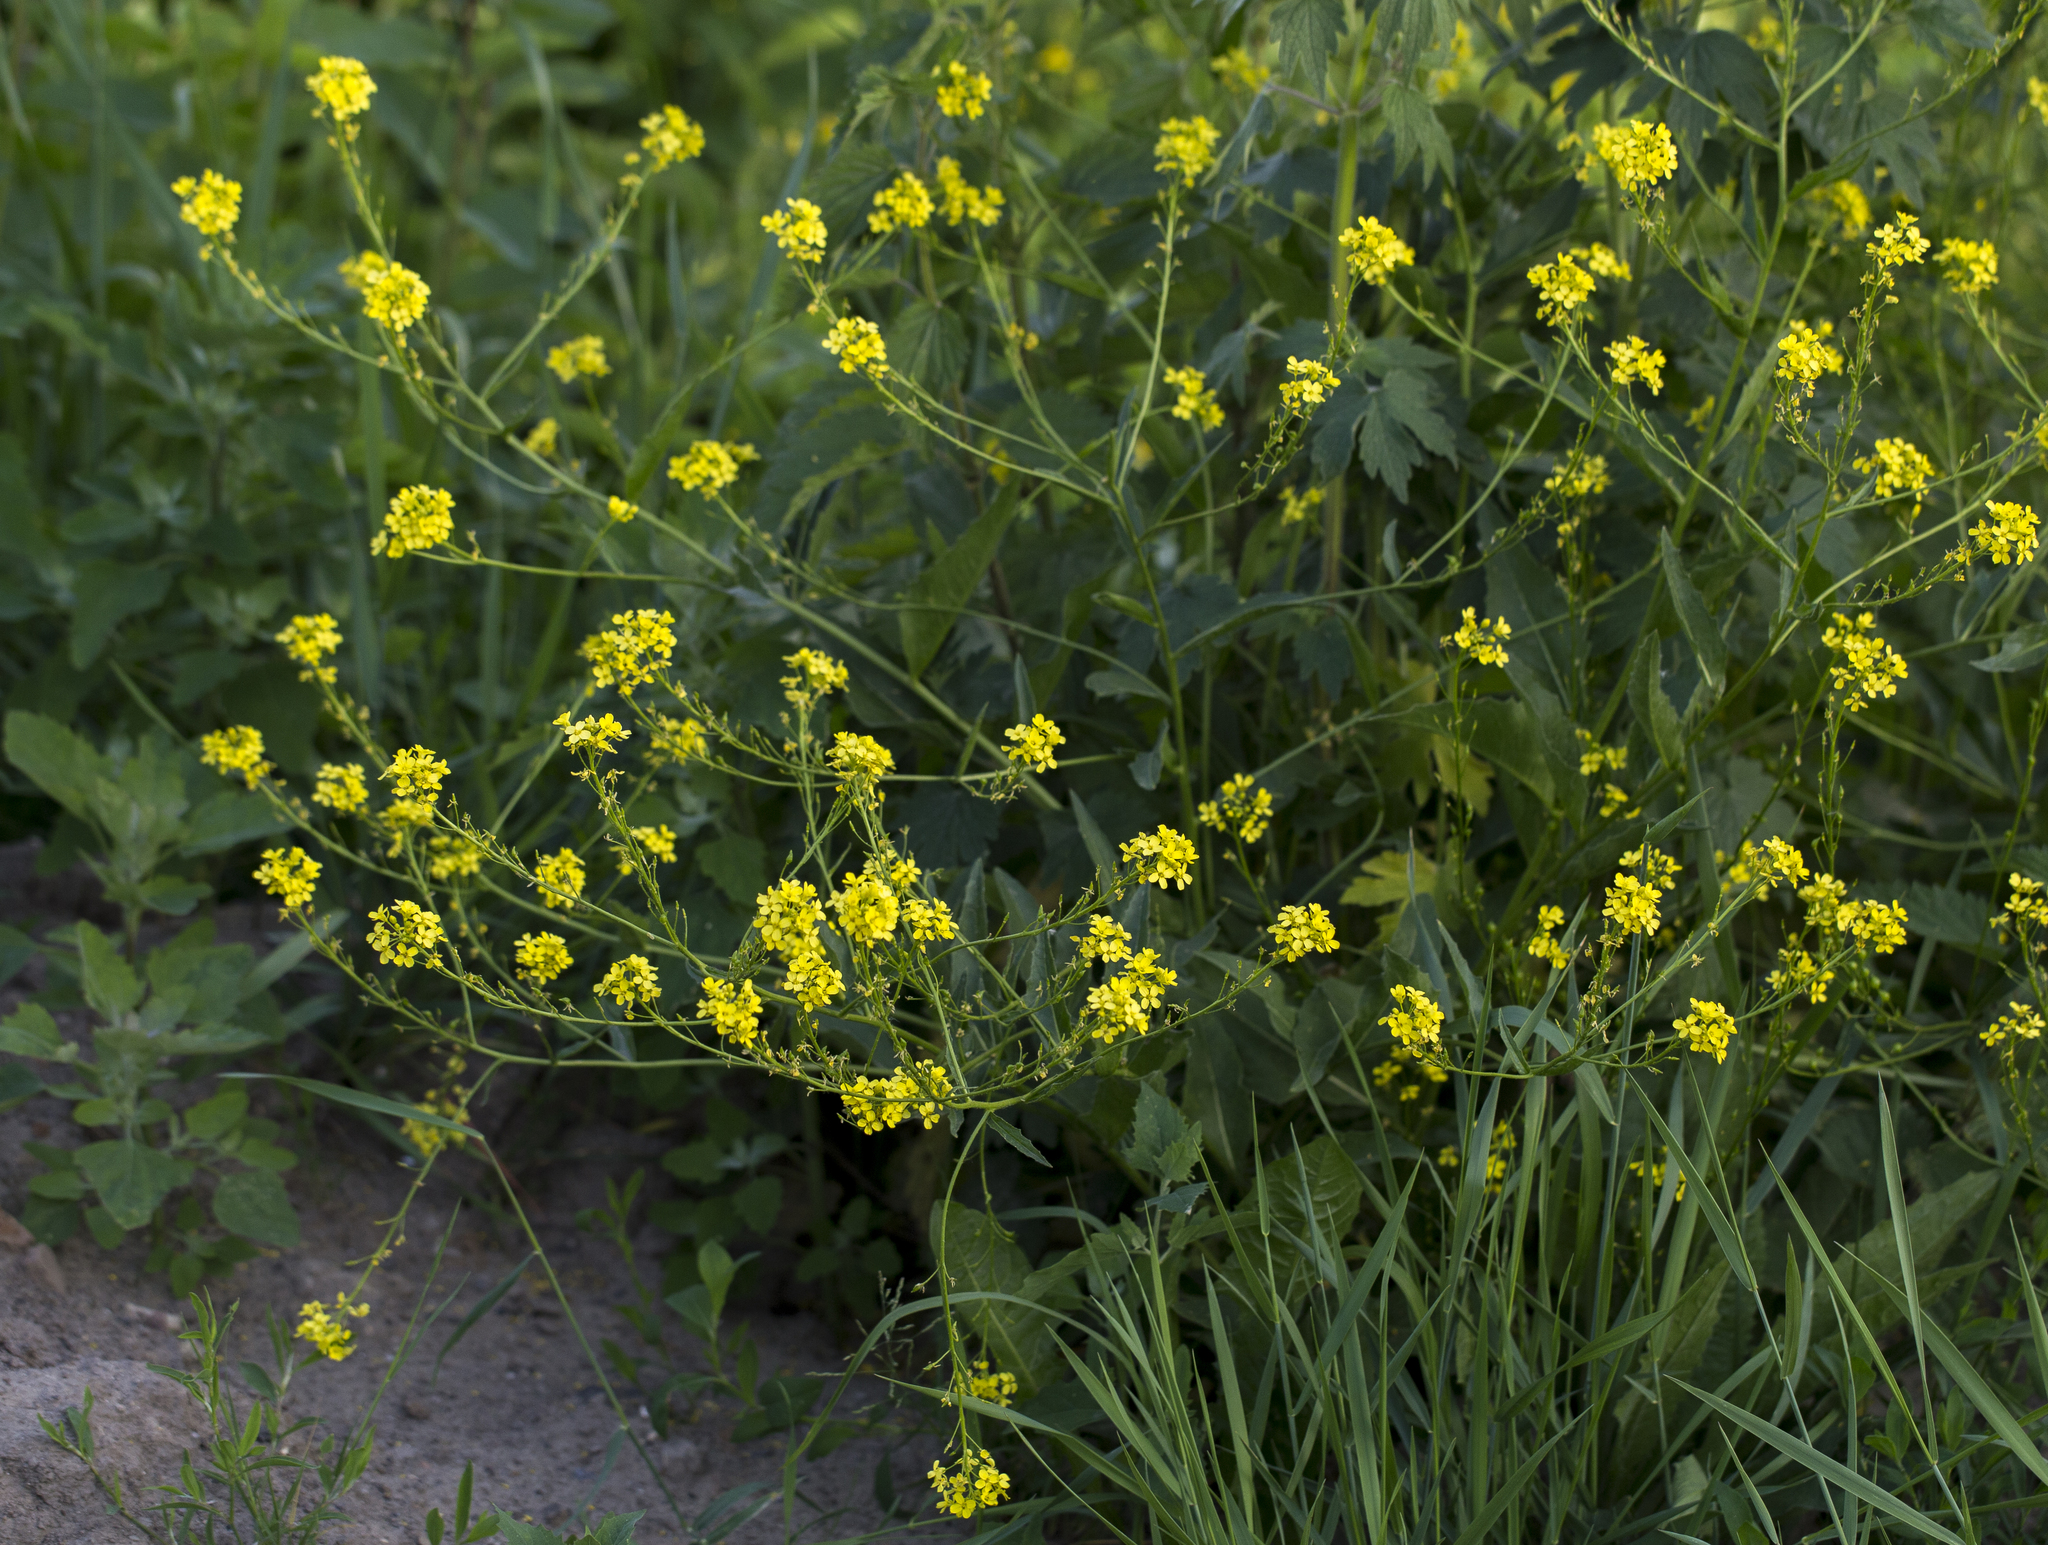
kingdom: Plantae
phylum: Tracheophyta
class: Magnoliopsida
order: Brassicales
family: Brassicaceae
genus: Bunias
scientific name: Bunias orientalis
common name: Warty-cabbage
